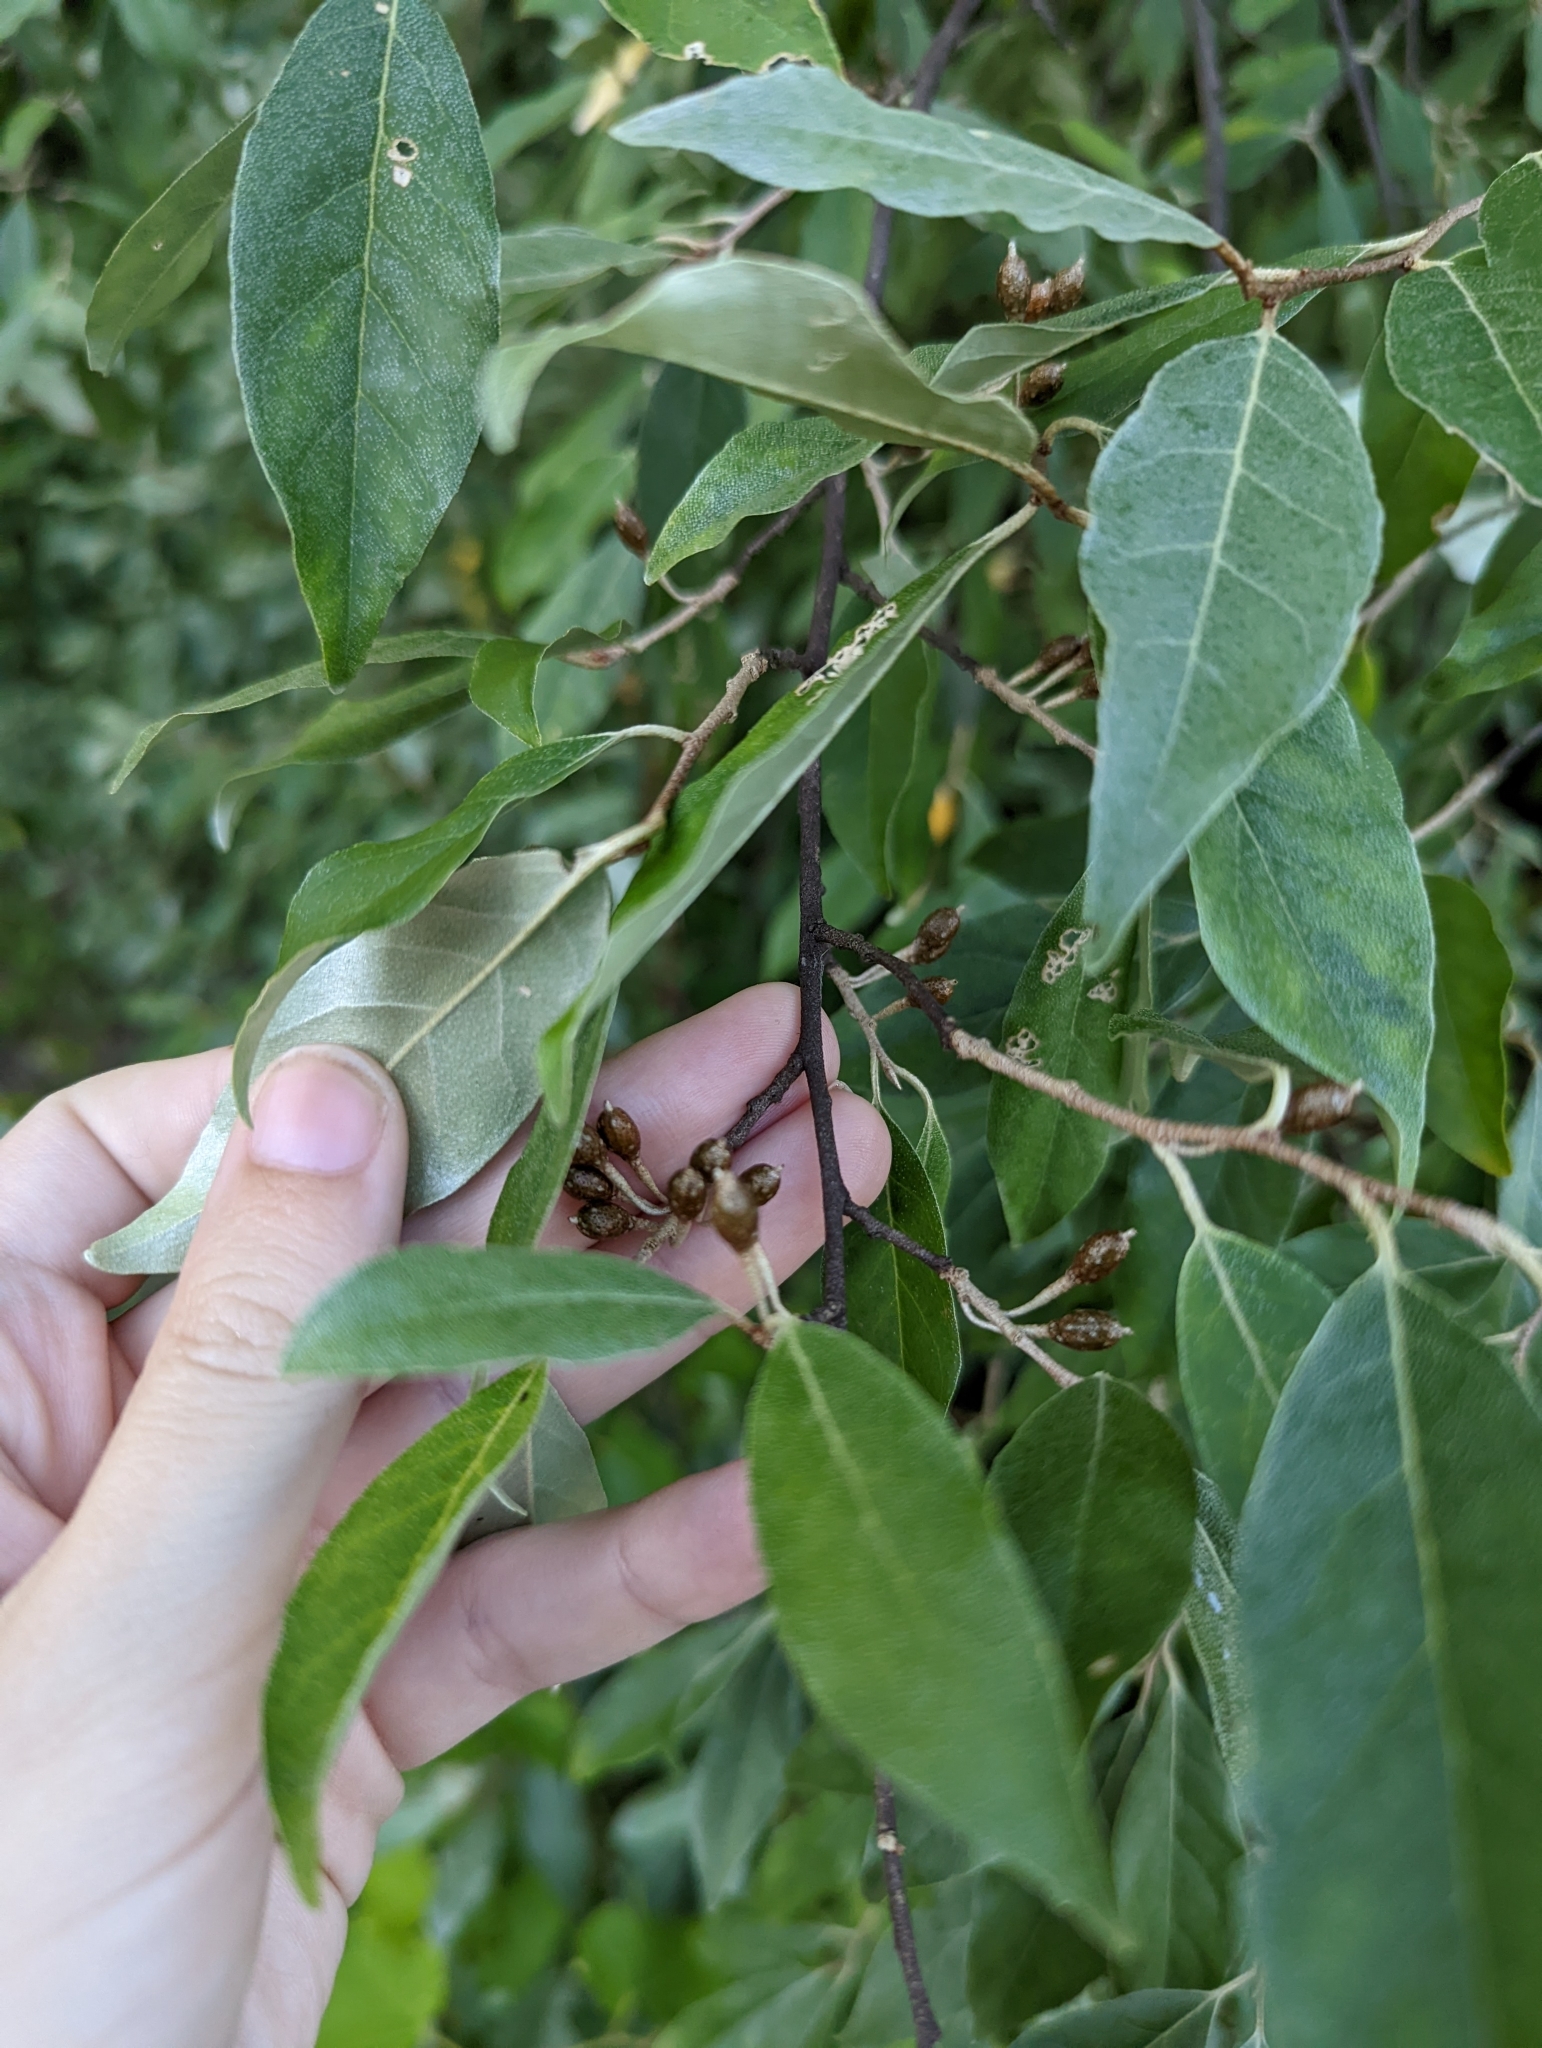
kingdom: Plantae
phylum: Tracheophyta
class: Magnoliopsida
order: Rosales
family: Elaeagnaceae
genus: Elaeagnus
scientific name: Elaeagnus umbellata
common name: Autumn olive
